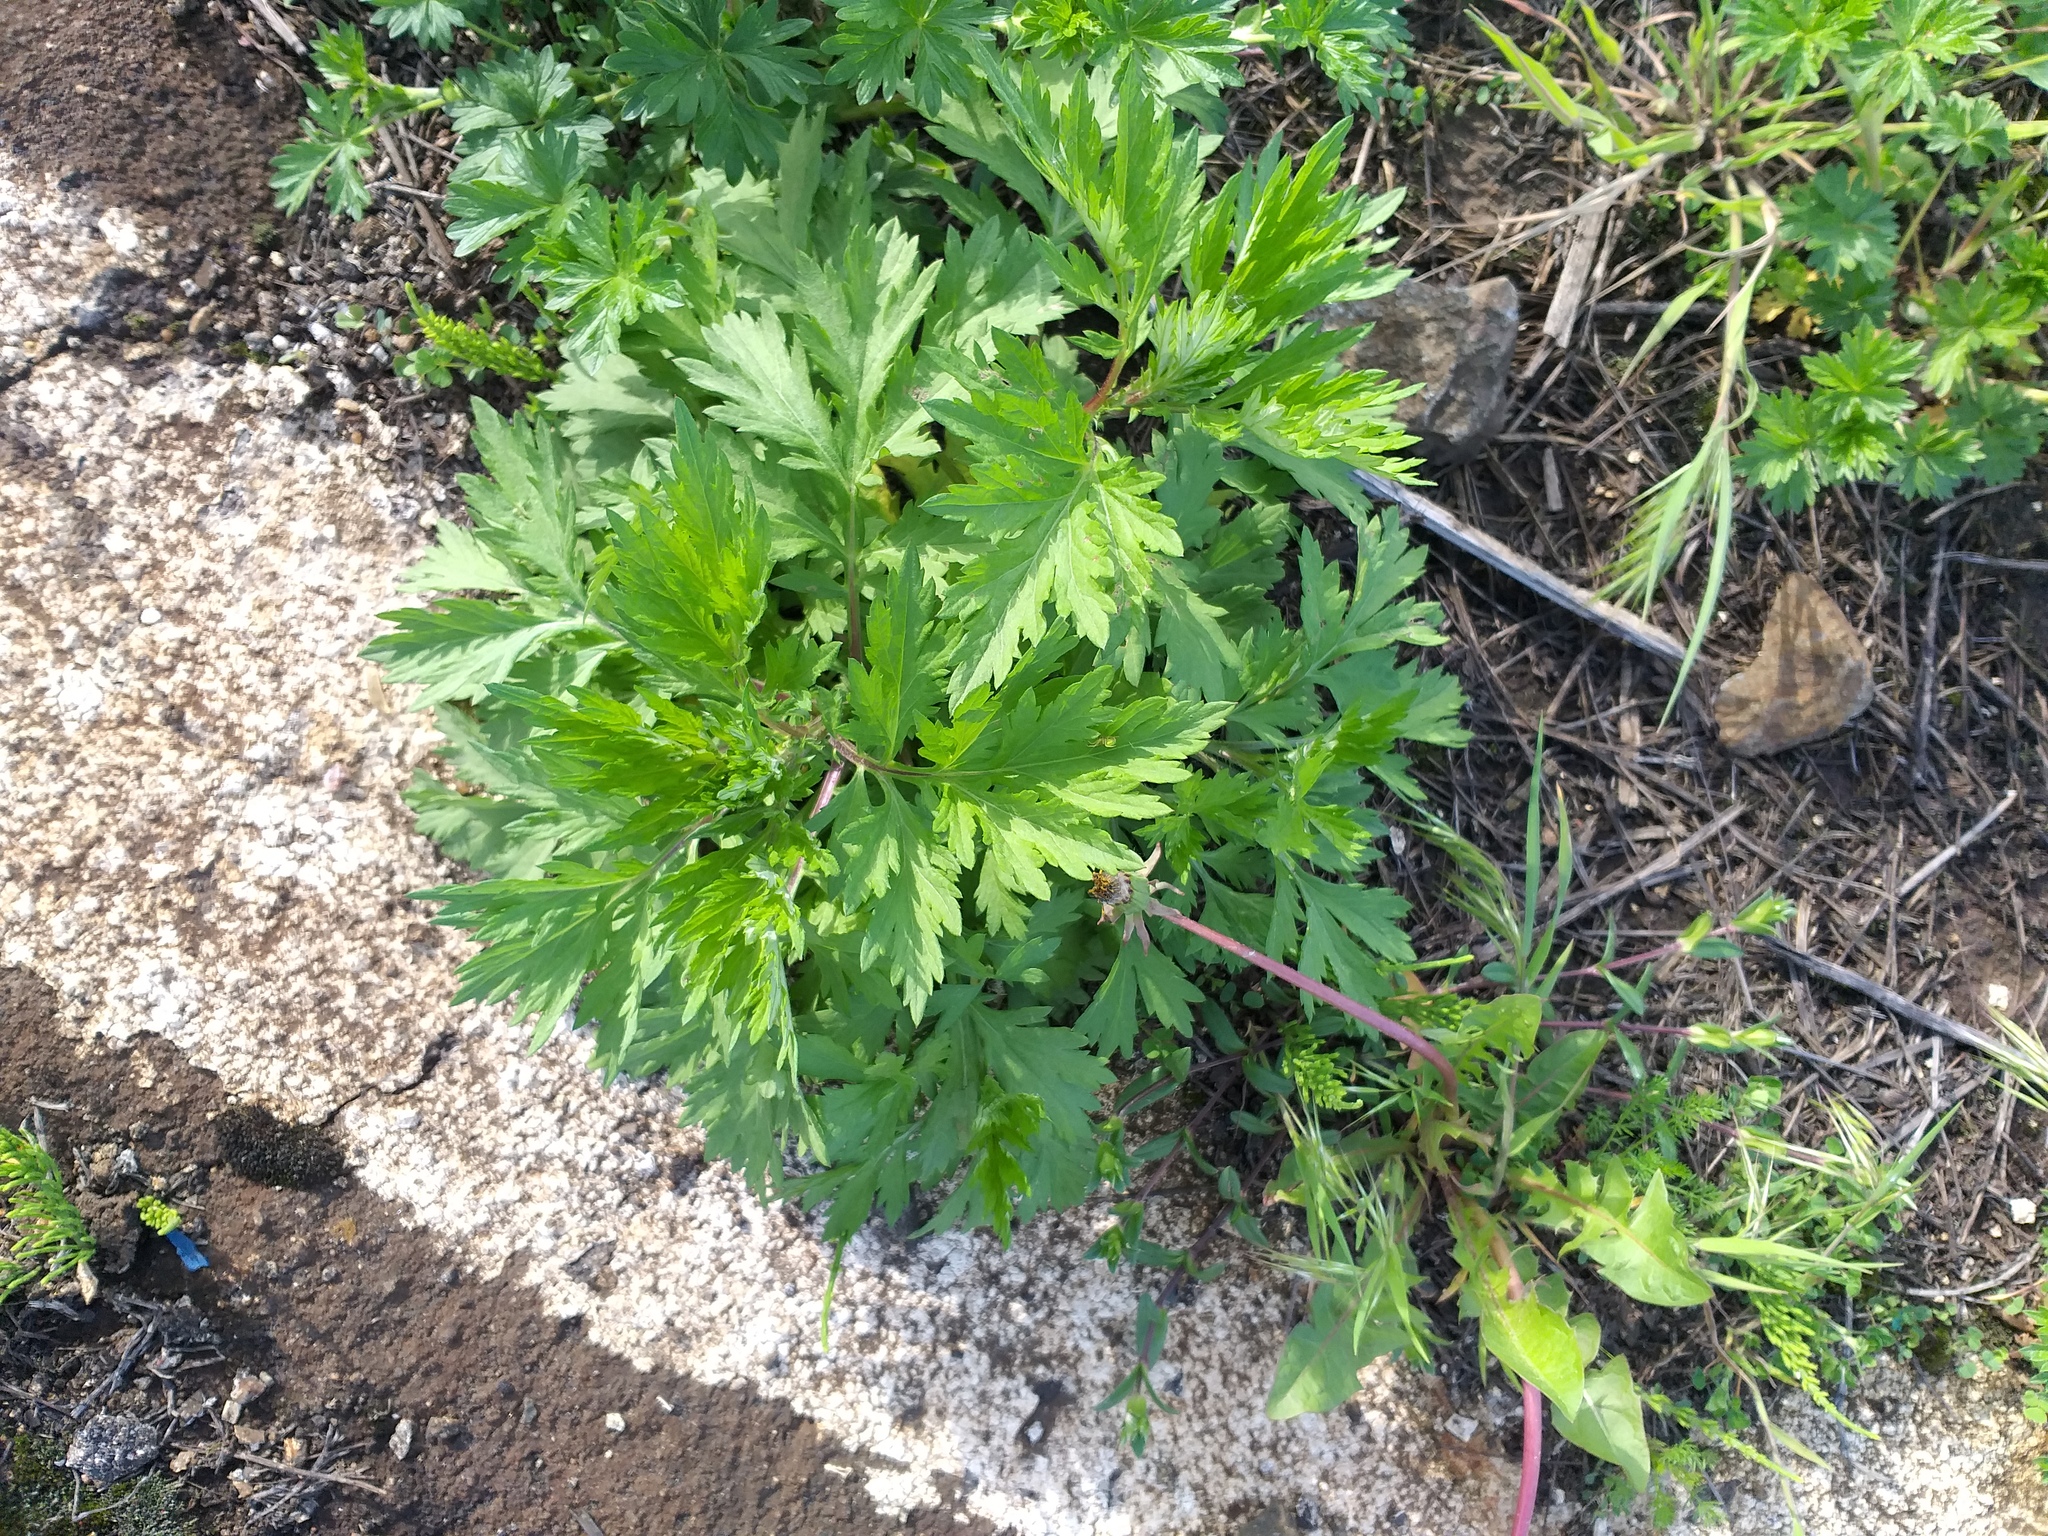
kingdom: Plantae
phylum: Tracheophyta
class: Magnoliopsida
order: Asterales
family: Asteraceae
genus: Artemisia
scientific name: Artemisia vulgaris
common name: Mugwort
